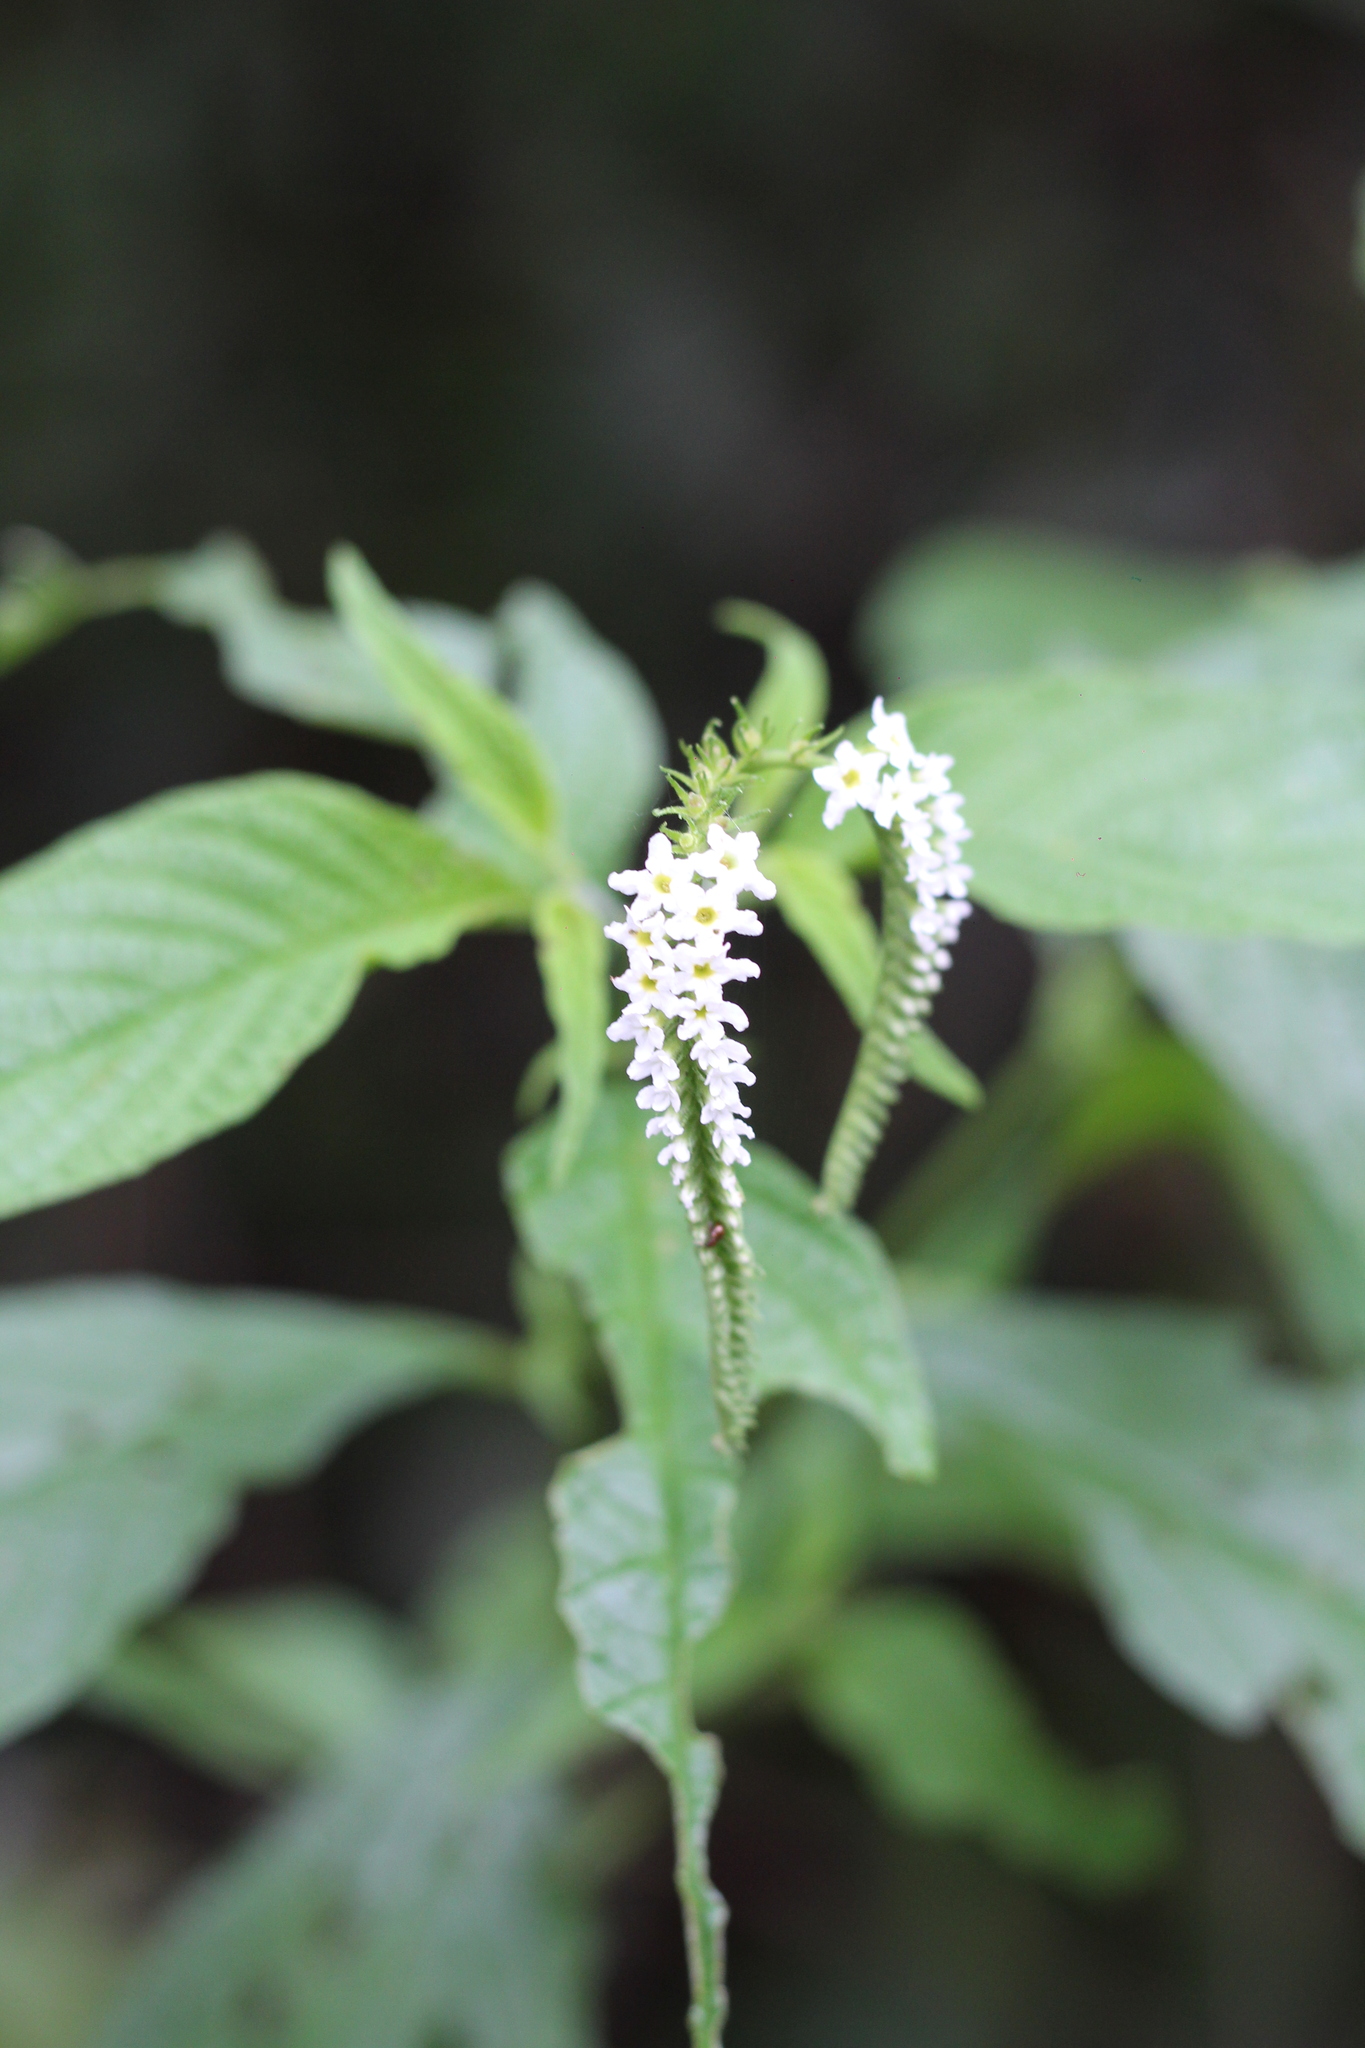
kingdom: Plantae
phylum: Tracheophyta
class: Magnoliopsida
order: Boraginales
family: Heliotropiaceae
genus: Heliotropium
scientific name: Heliotropium tiaridioides
